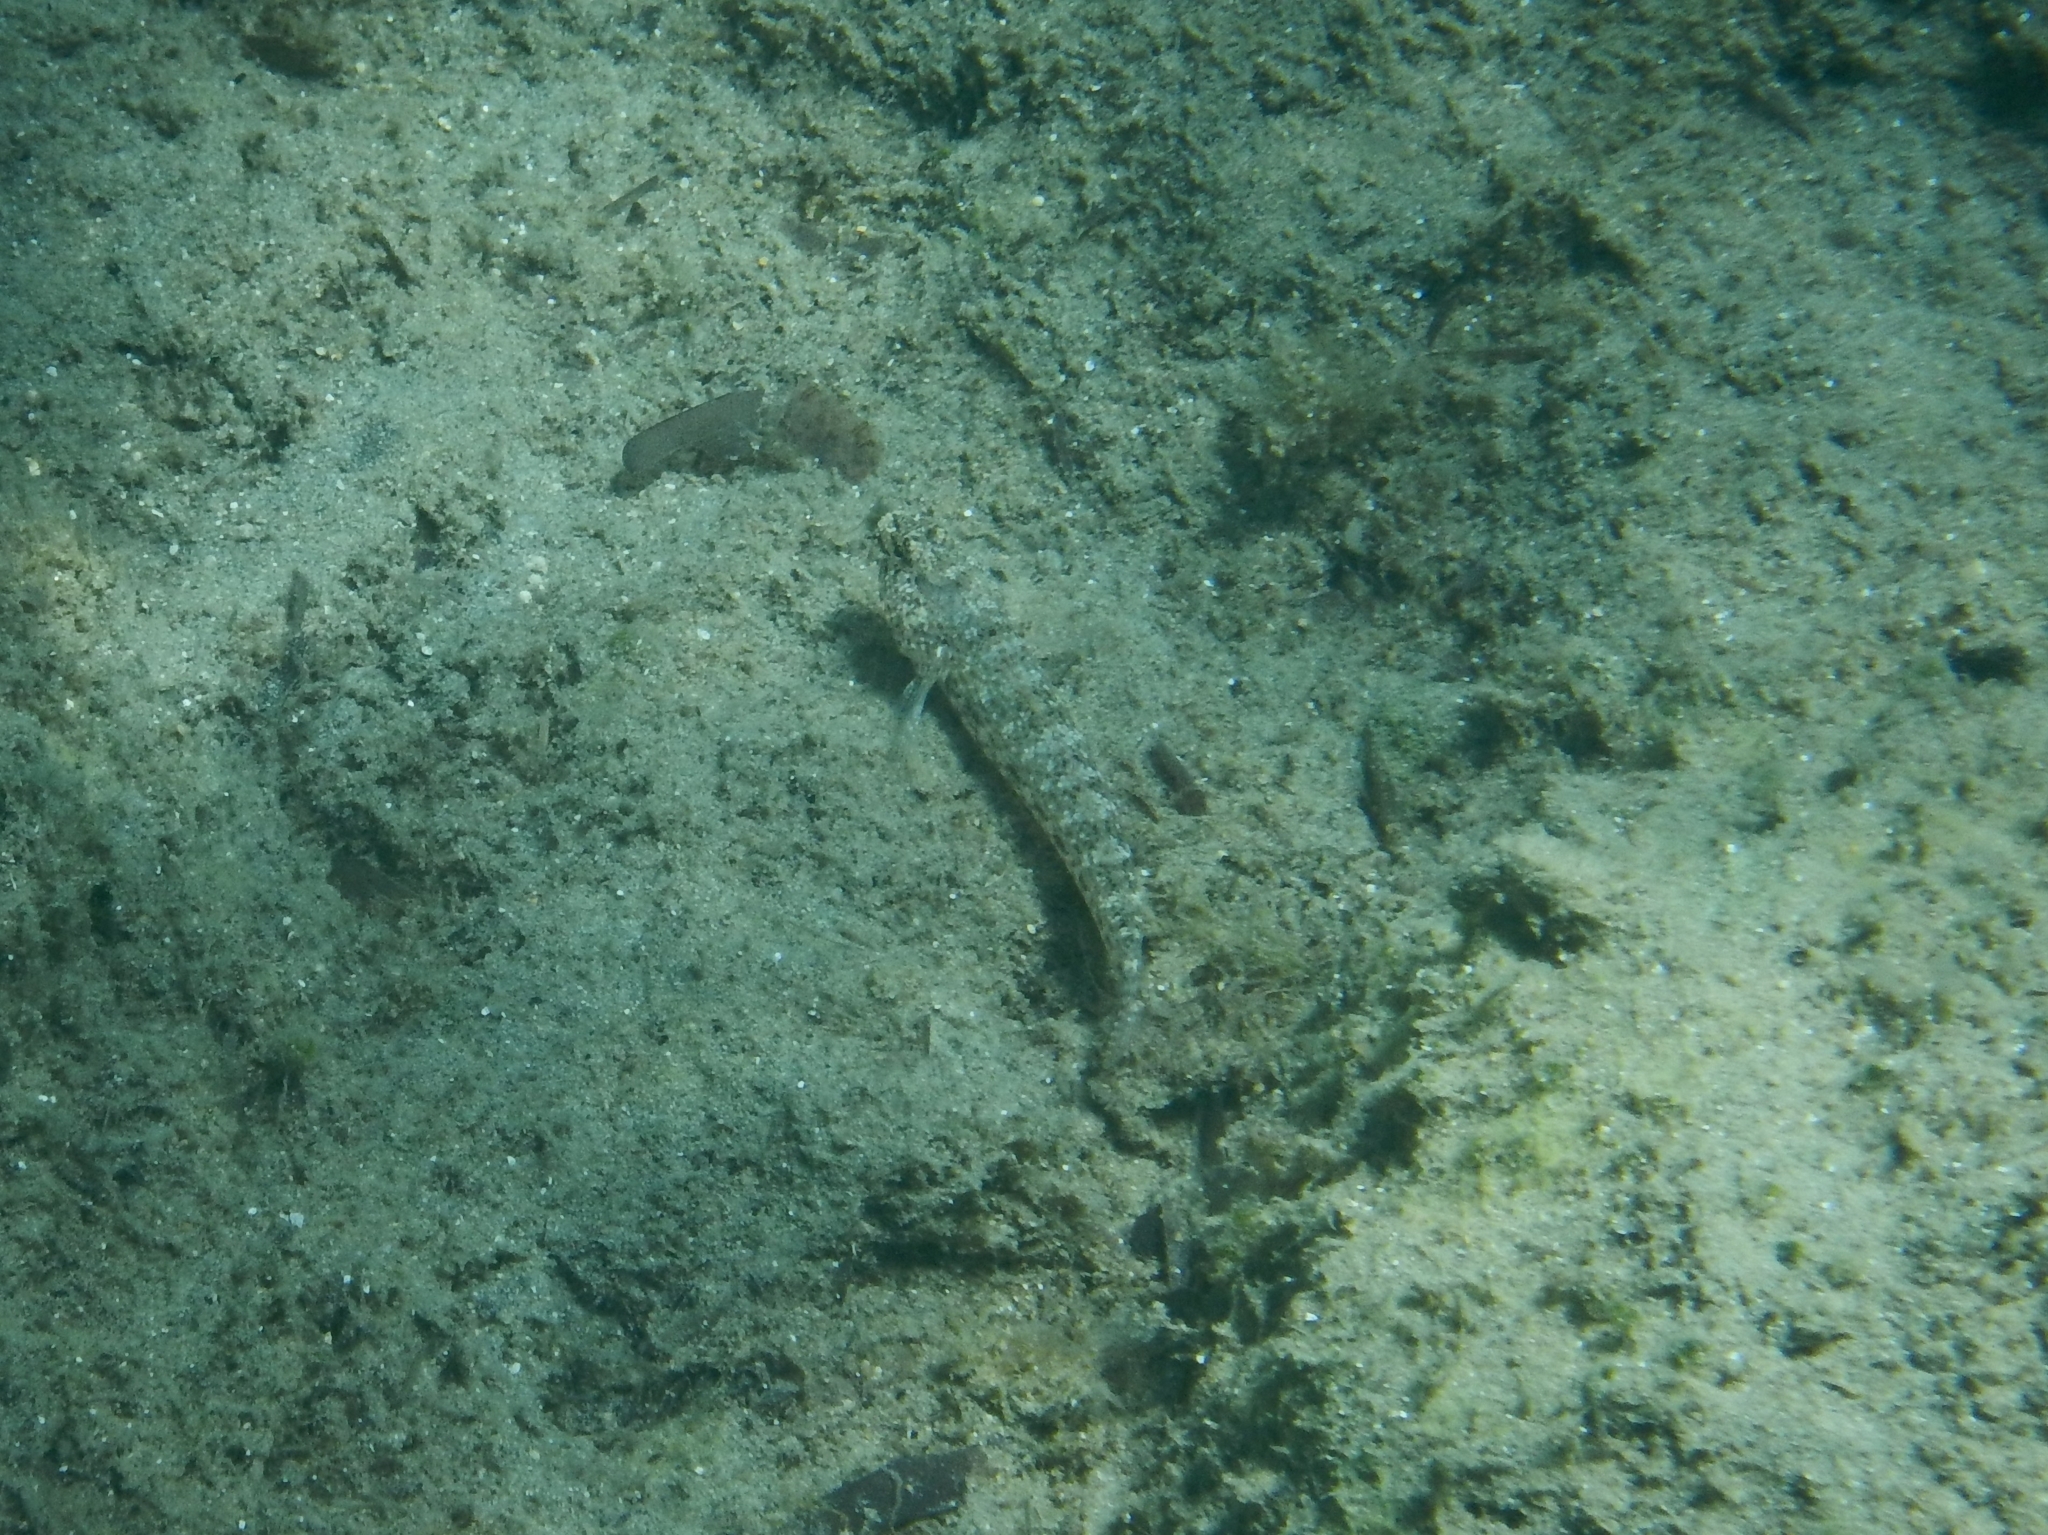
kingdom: Animalia
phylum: Chordata
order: Perciformes
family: Gobiidae
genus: Gobius
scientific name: Gobius incognitus
